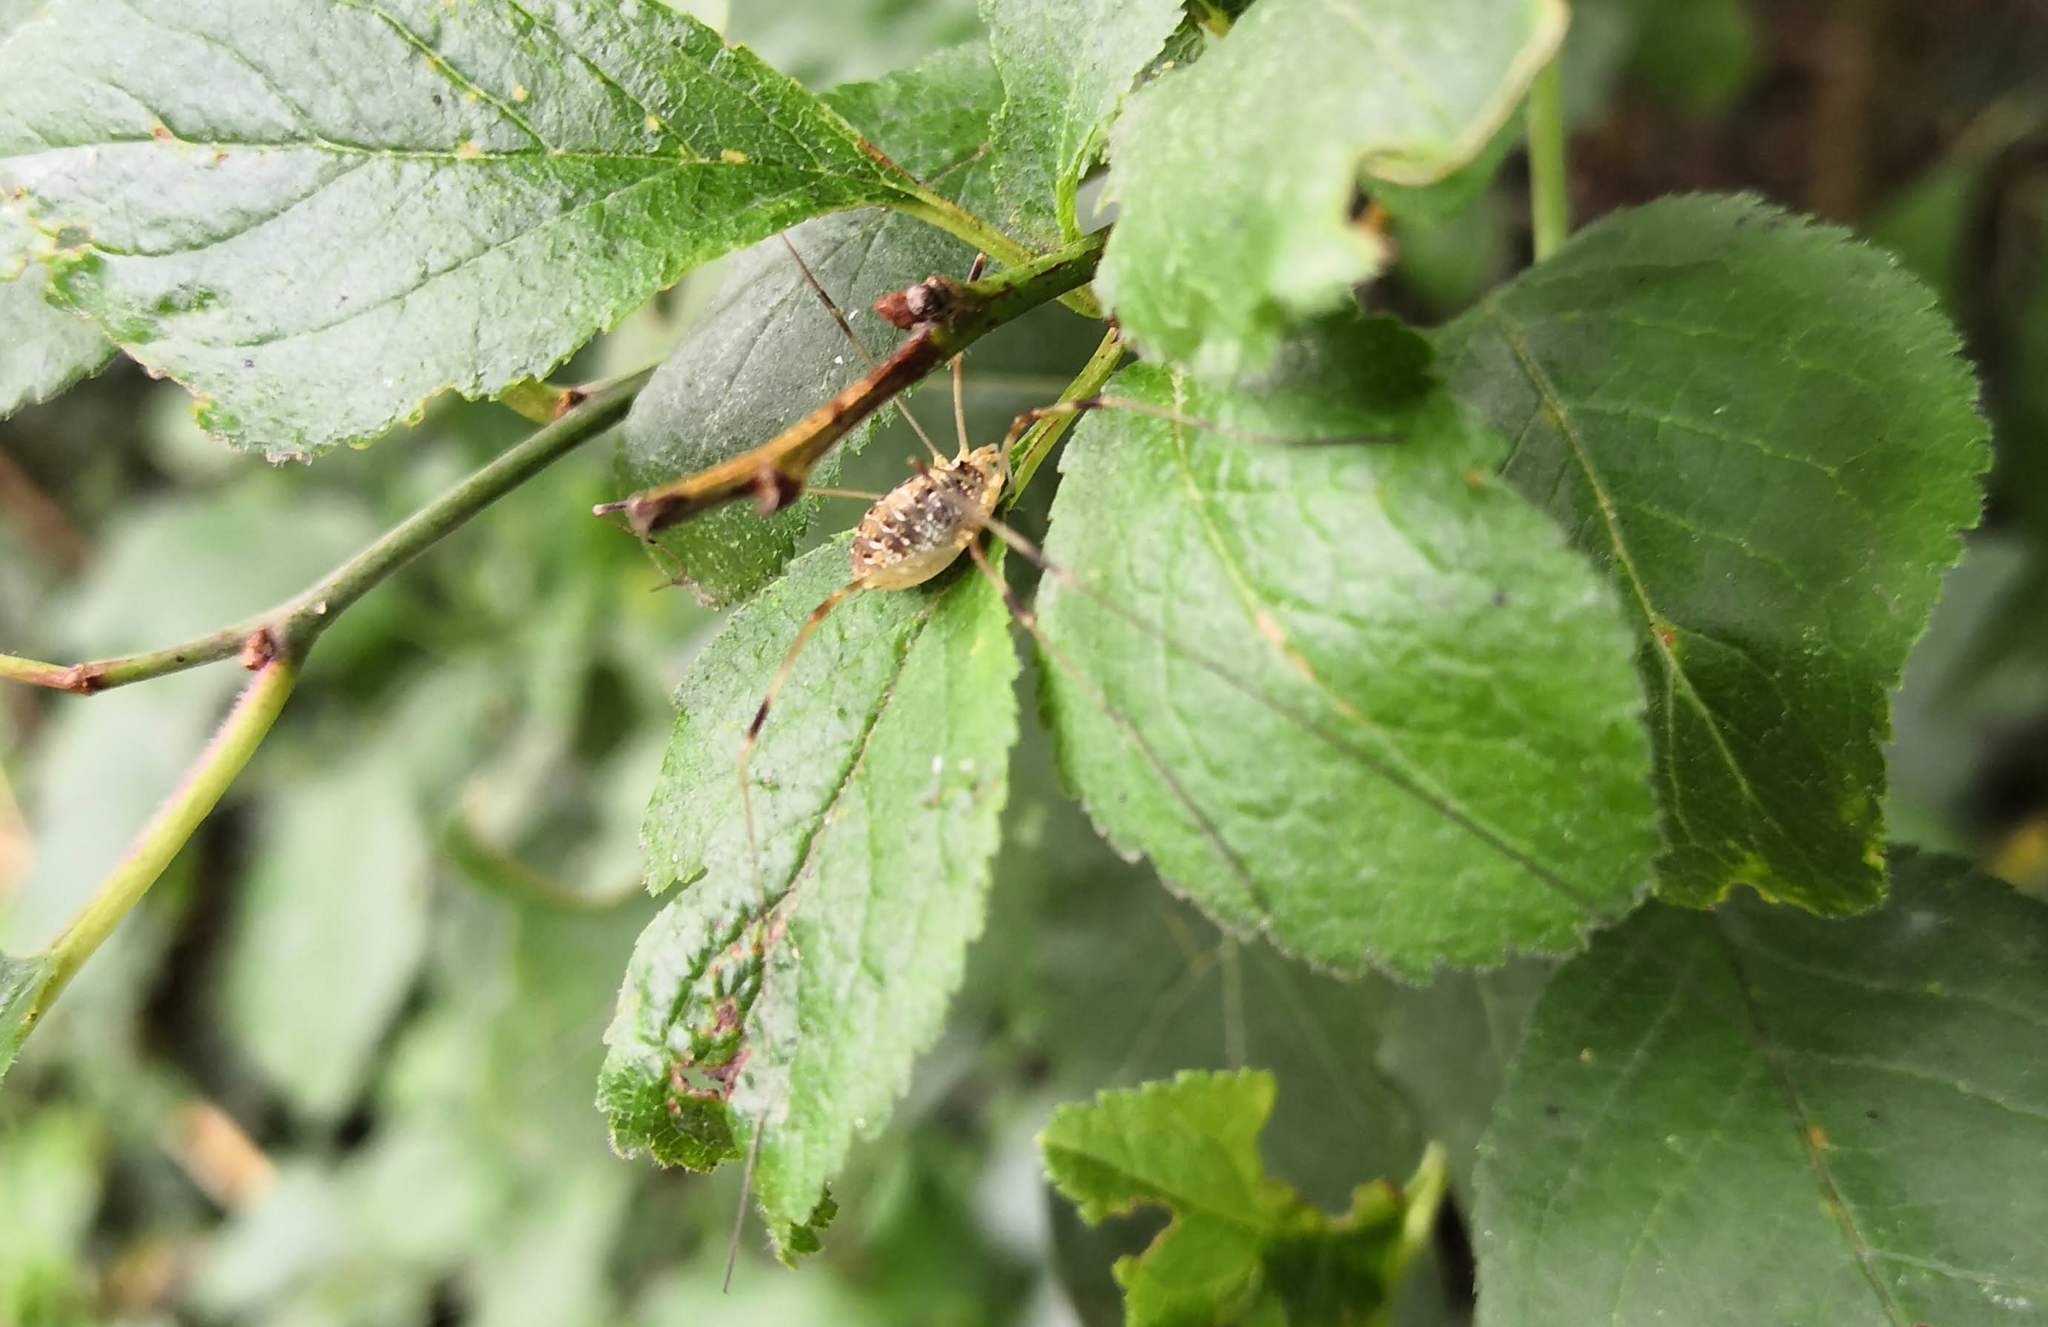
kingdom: Animalia
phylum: Arthropoda
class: Arachnida
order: Opiliones
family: Phalangiidae
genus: Opilio
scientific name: Opilio canestrinii
